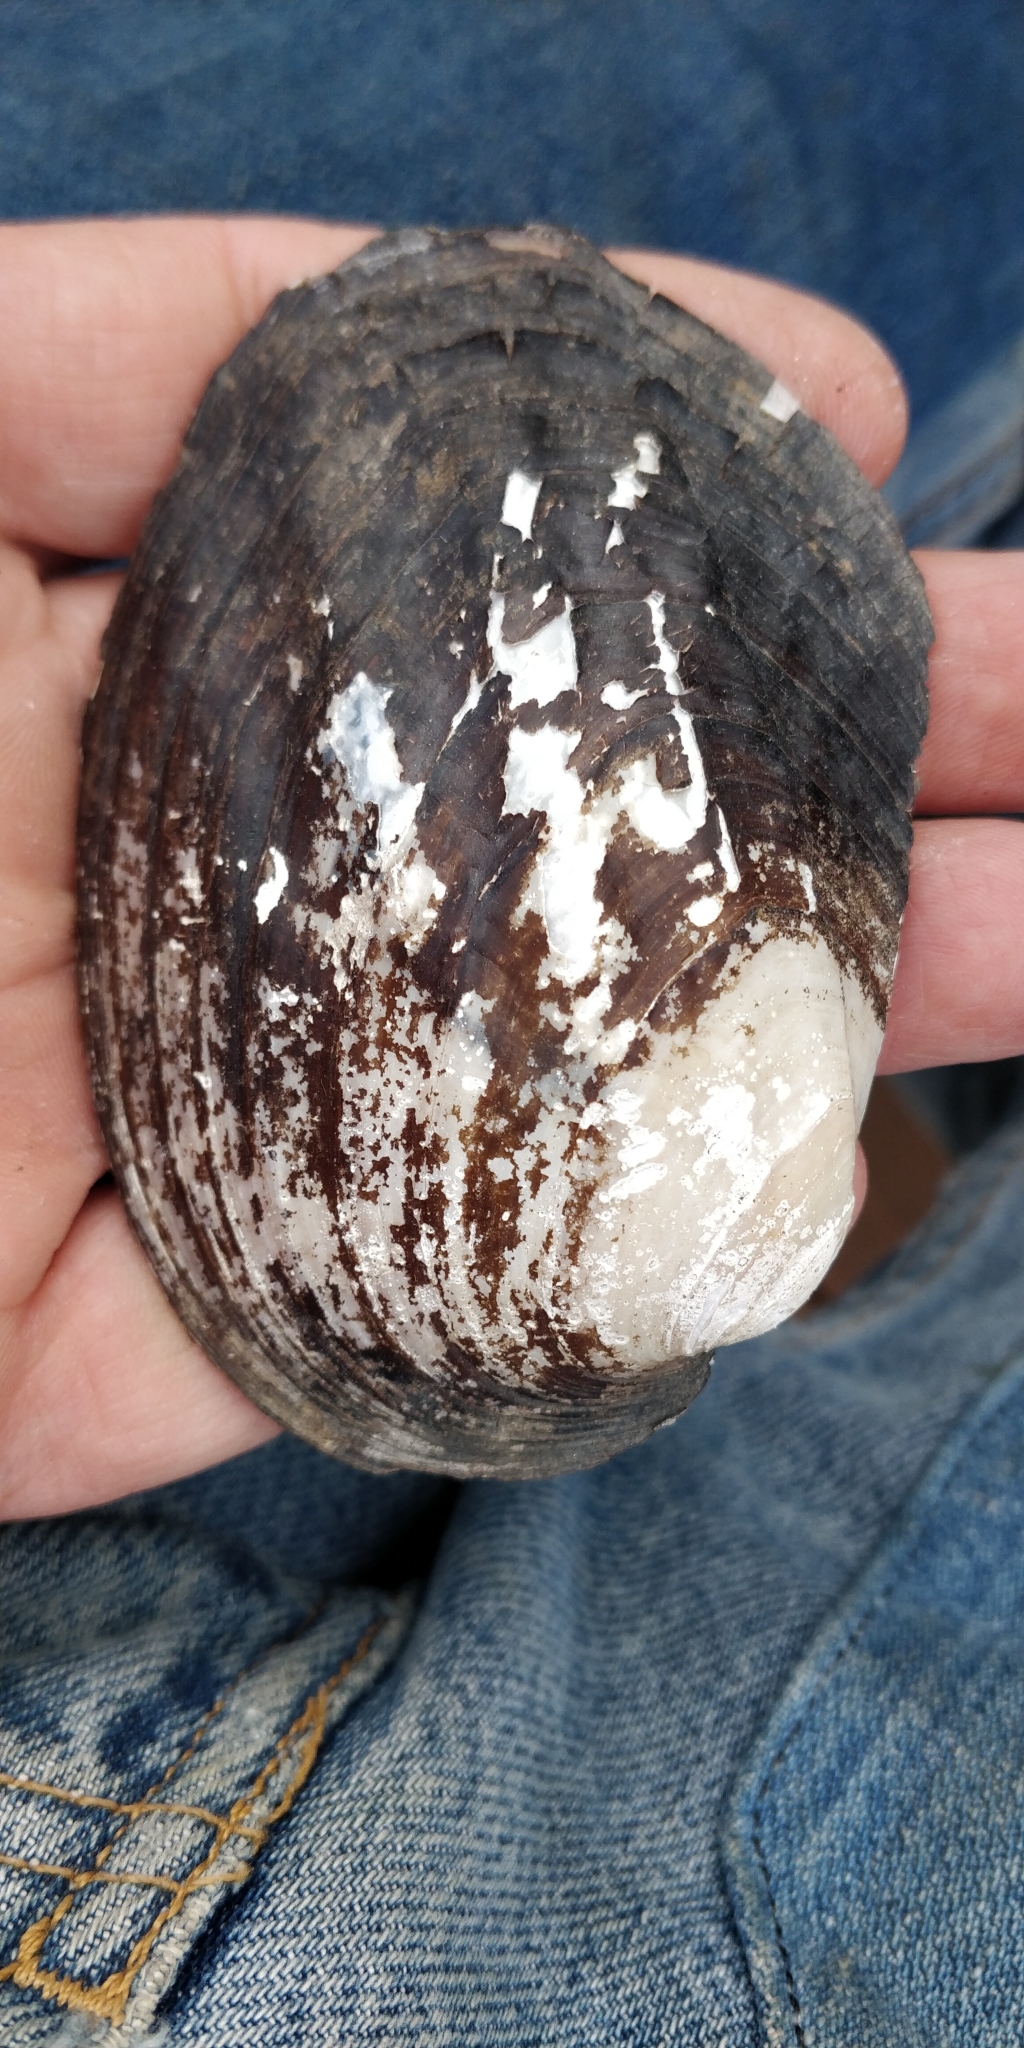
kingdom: Animalia
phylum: Mollusca
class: Bivalvia
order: Unionida
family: Unionidae
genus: Amblema
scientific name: Amblema plicata
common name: Threeridge
